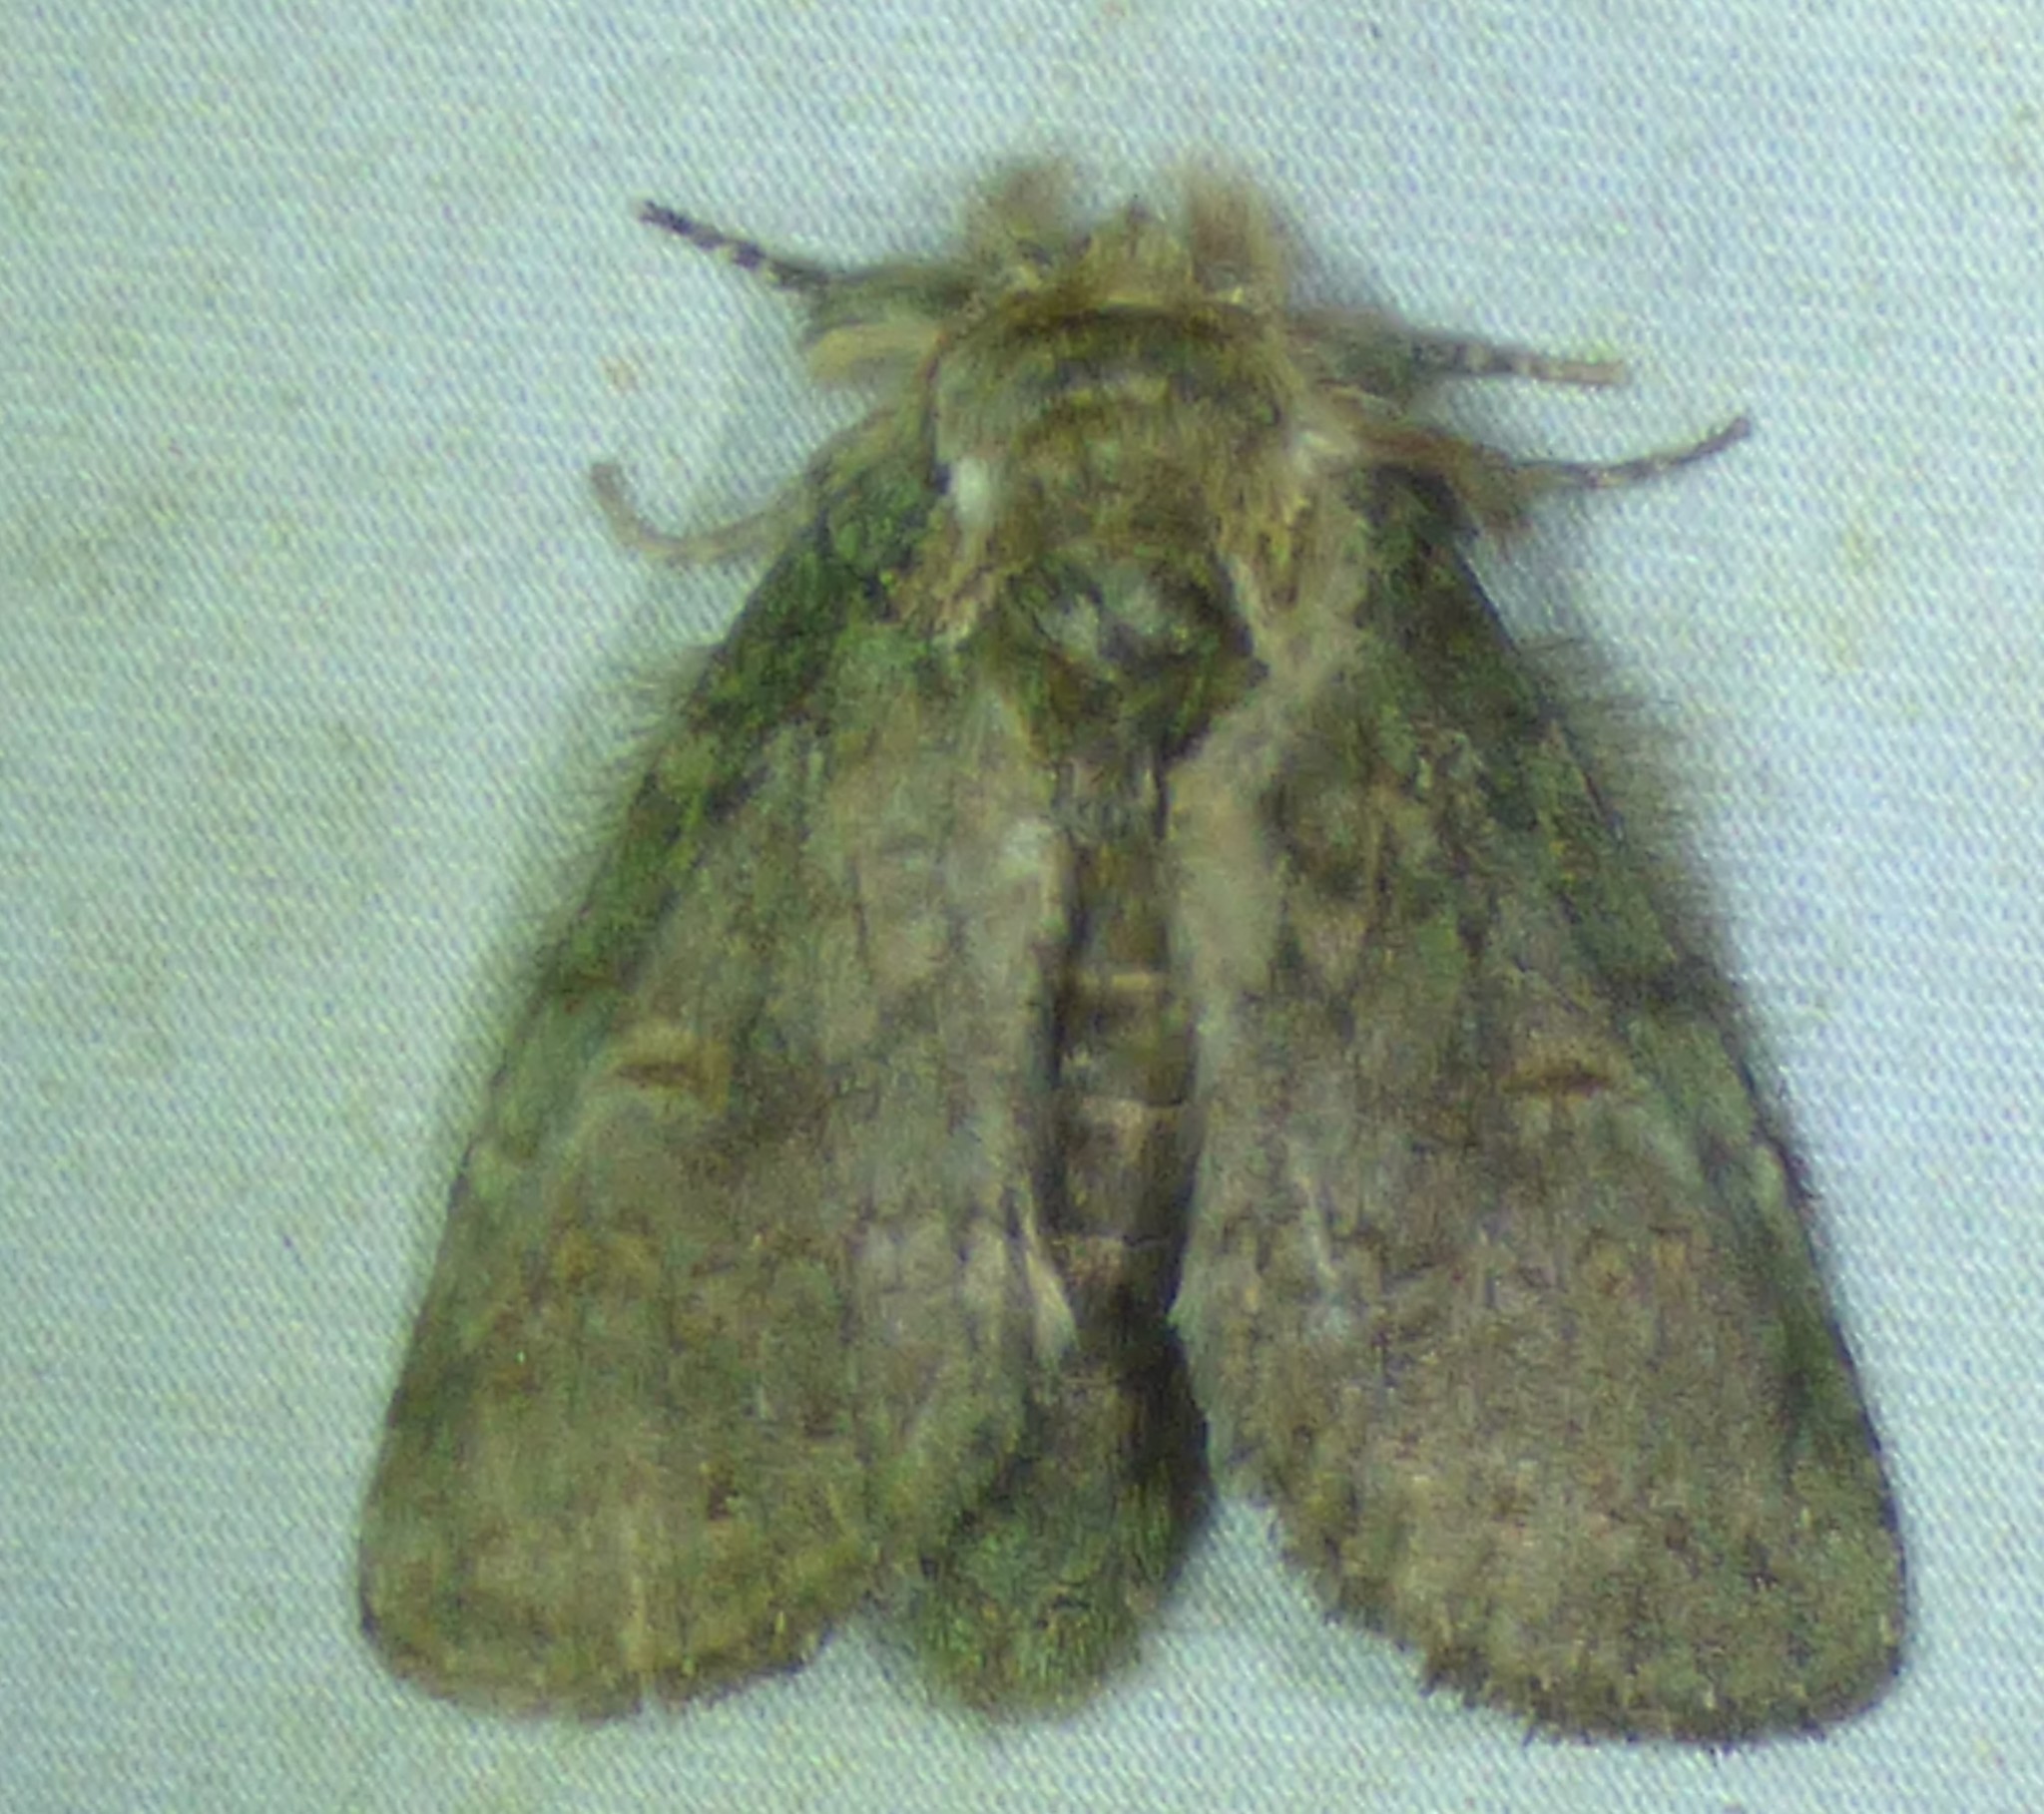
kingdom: Animalia
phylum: Arthropoda
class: Insecta
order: Lepidoptera
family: Notodontidae
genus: Disphragis
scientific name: Disphragis Cecrita biundata
